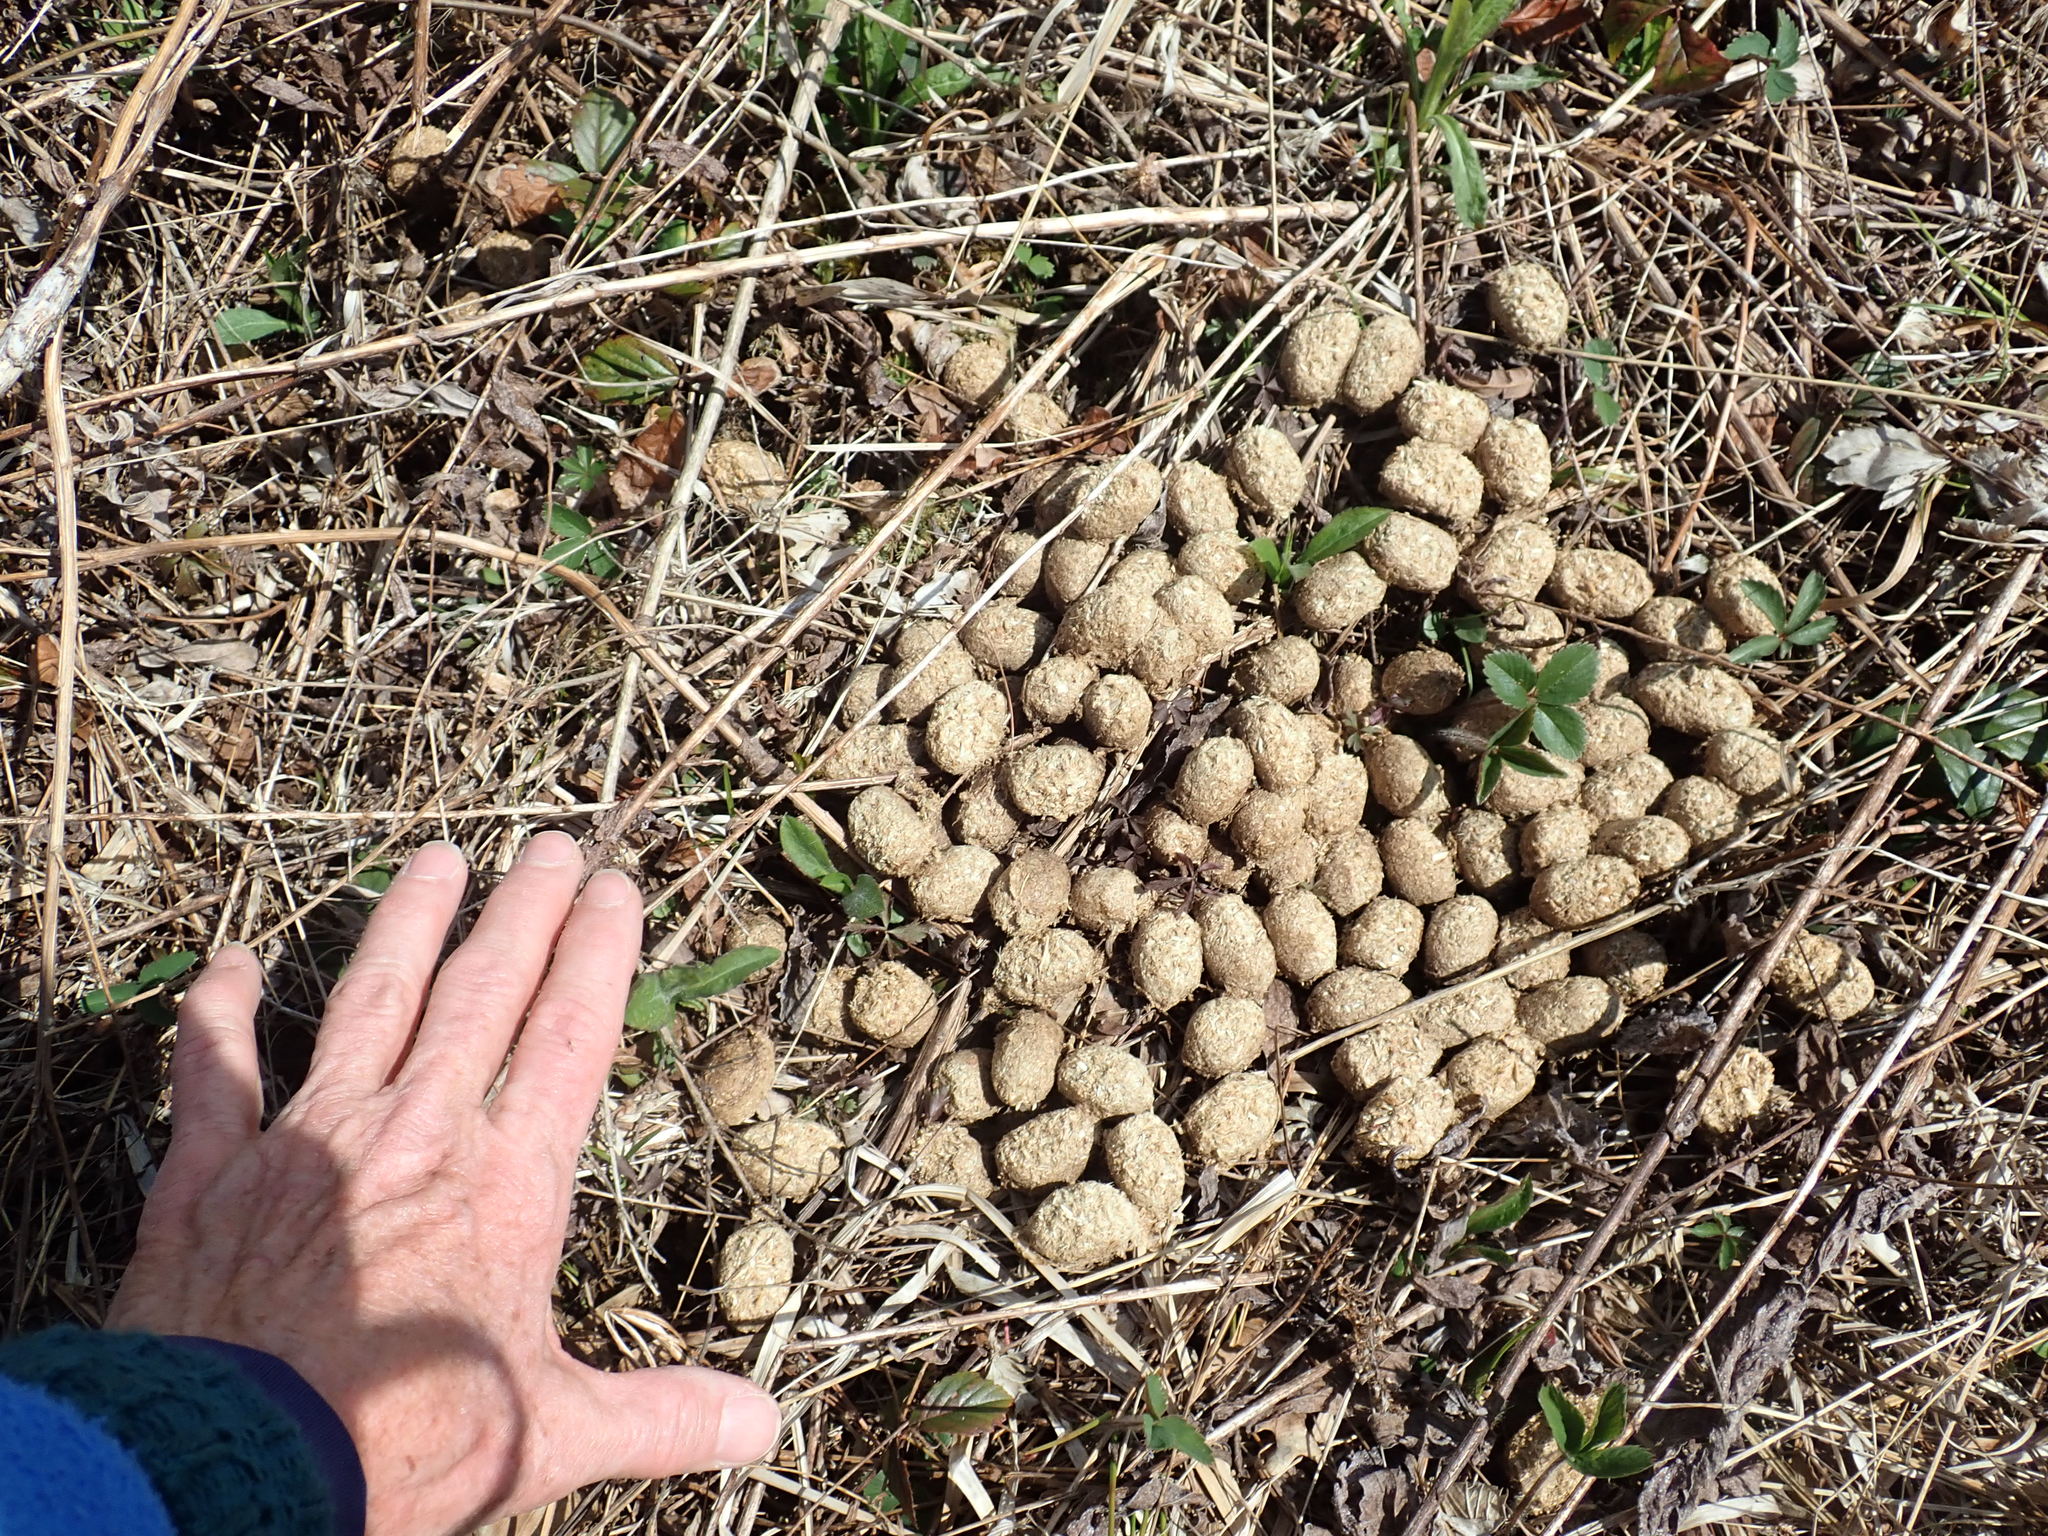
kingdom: Animalia
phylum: Chordata
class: Mammalia
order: Artiodactyla
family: Cervidae
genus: Alces
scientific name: Alces alces
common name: Moose
